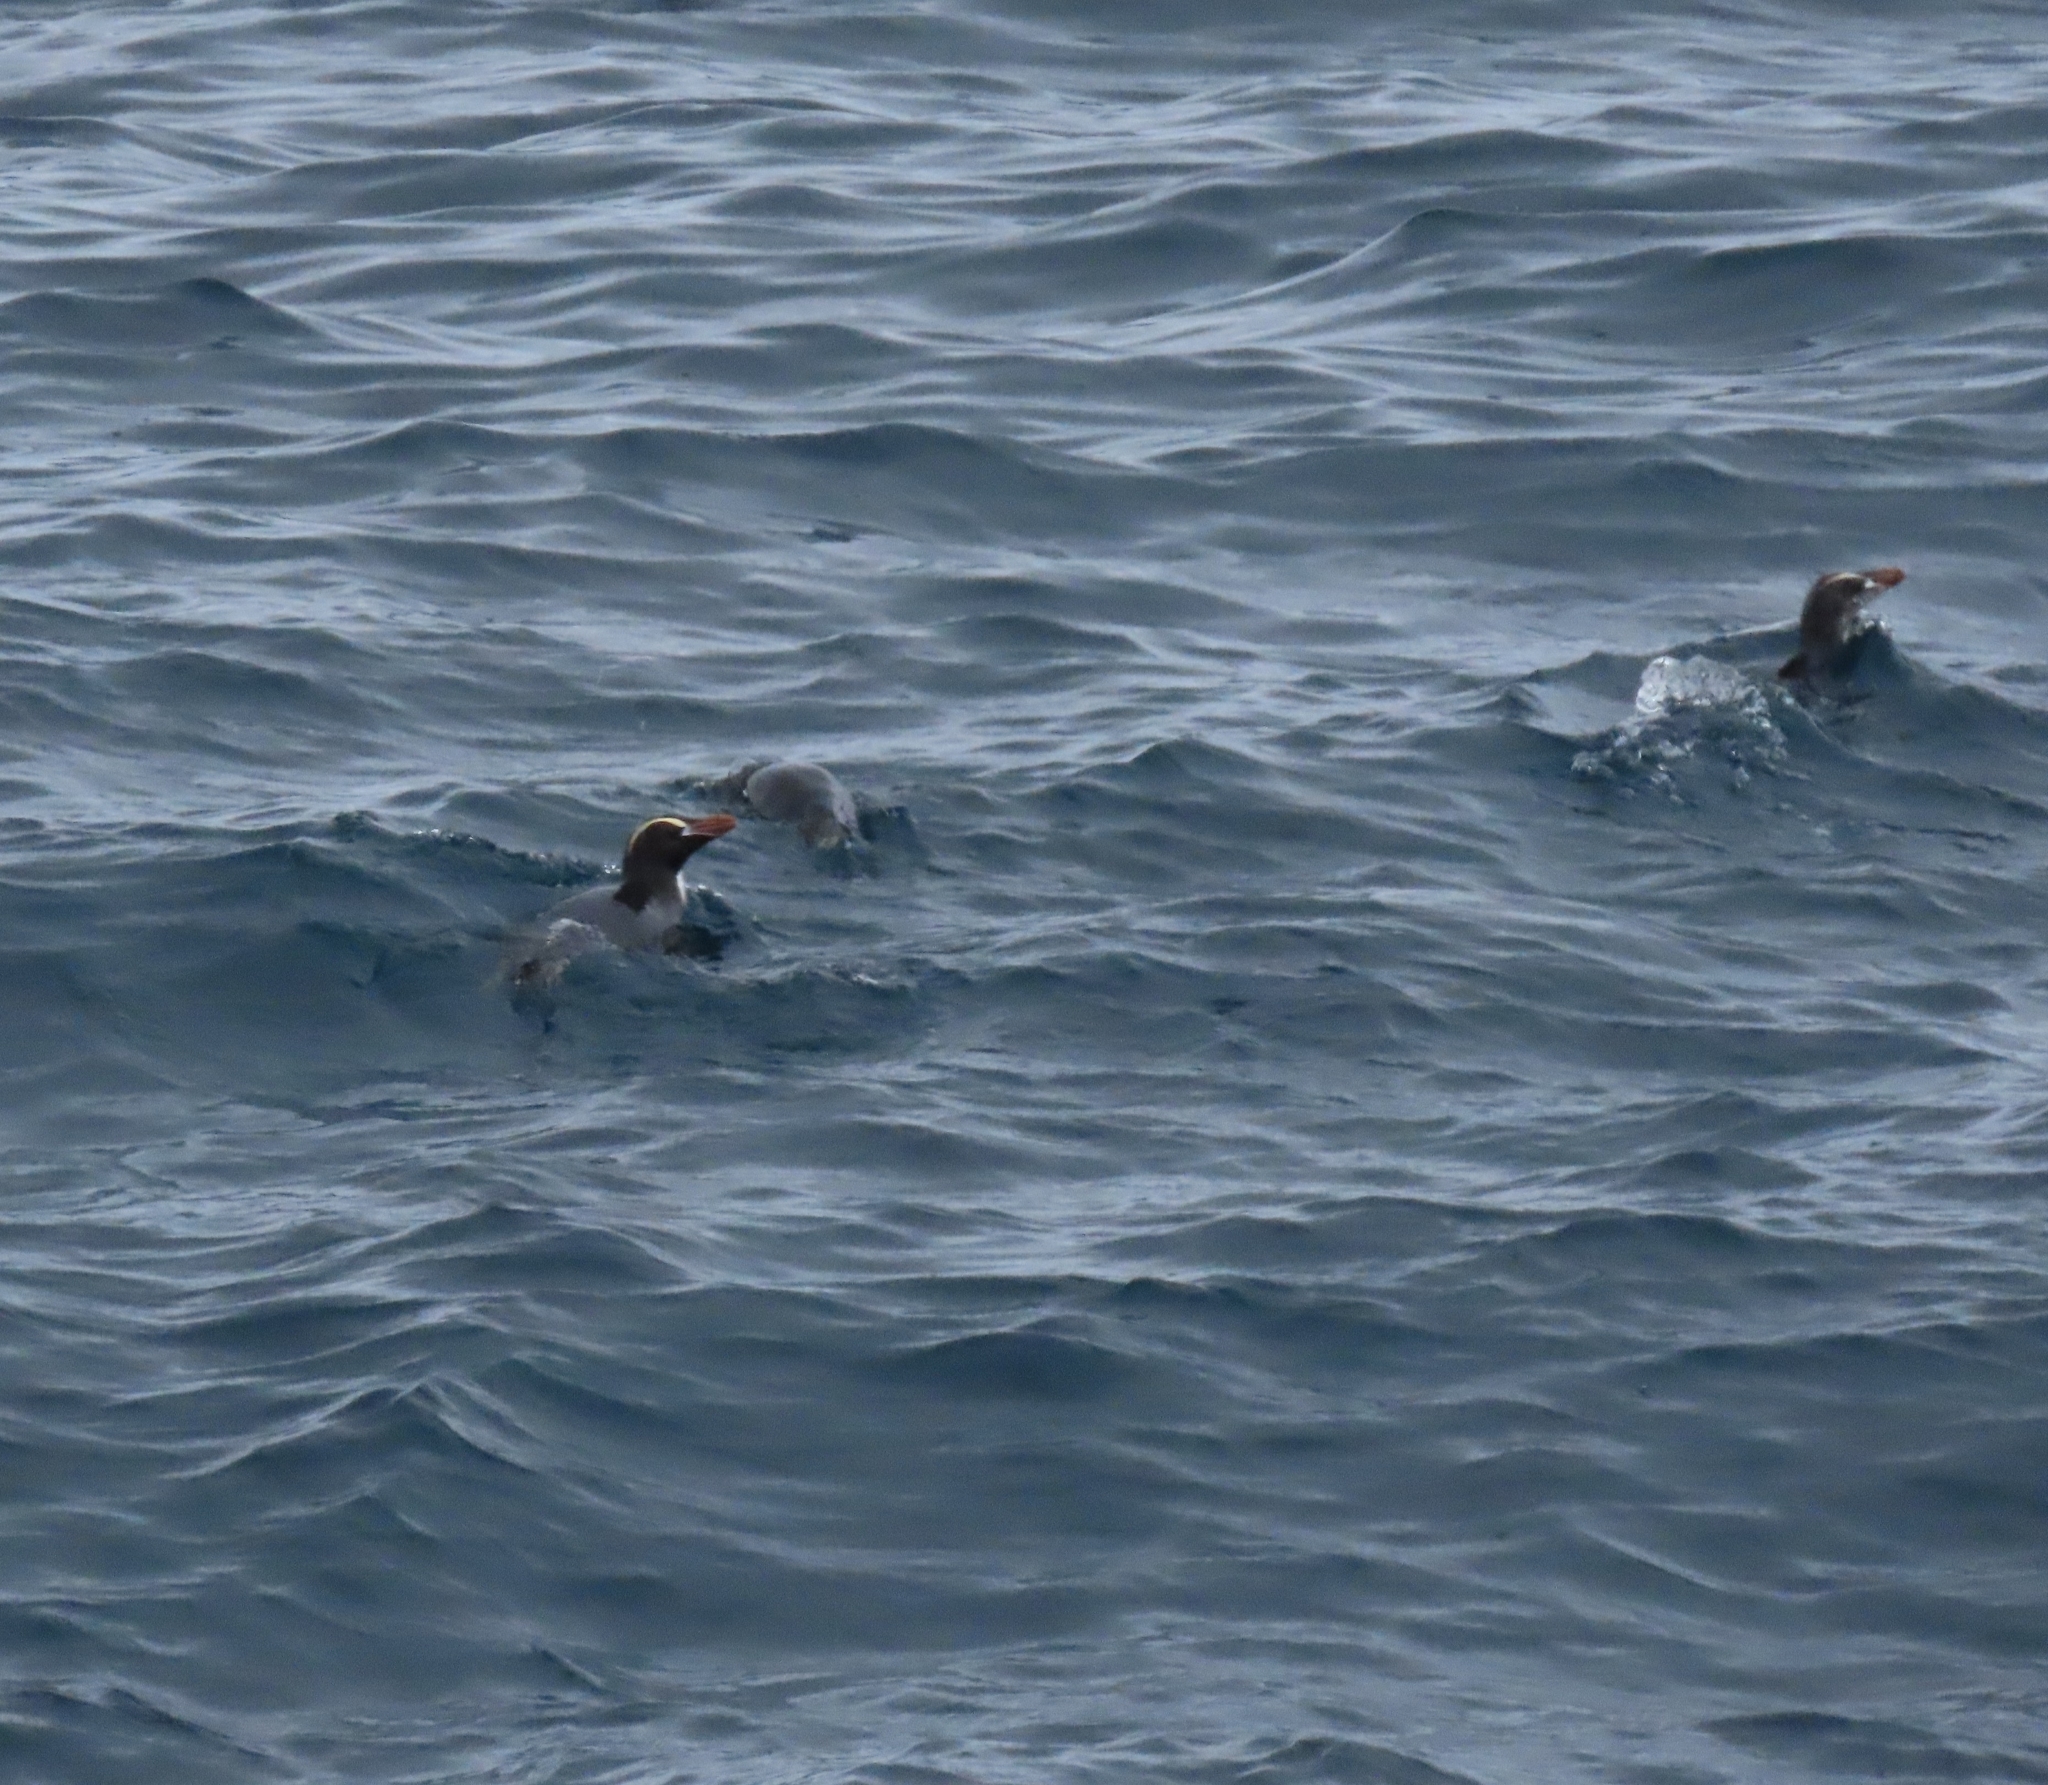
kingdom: Animalia
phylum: Chordata
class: Aves
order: Sphenisciformes
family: Spheniscidae
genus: Eudyptes
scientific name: Eudyptes sclateri
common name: Erect-crested penguin
